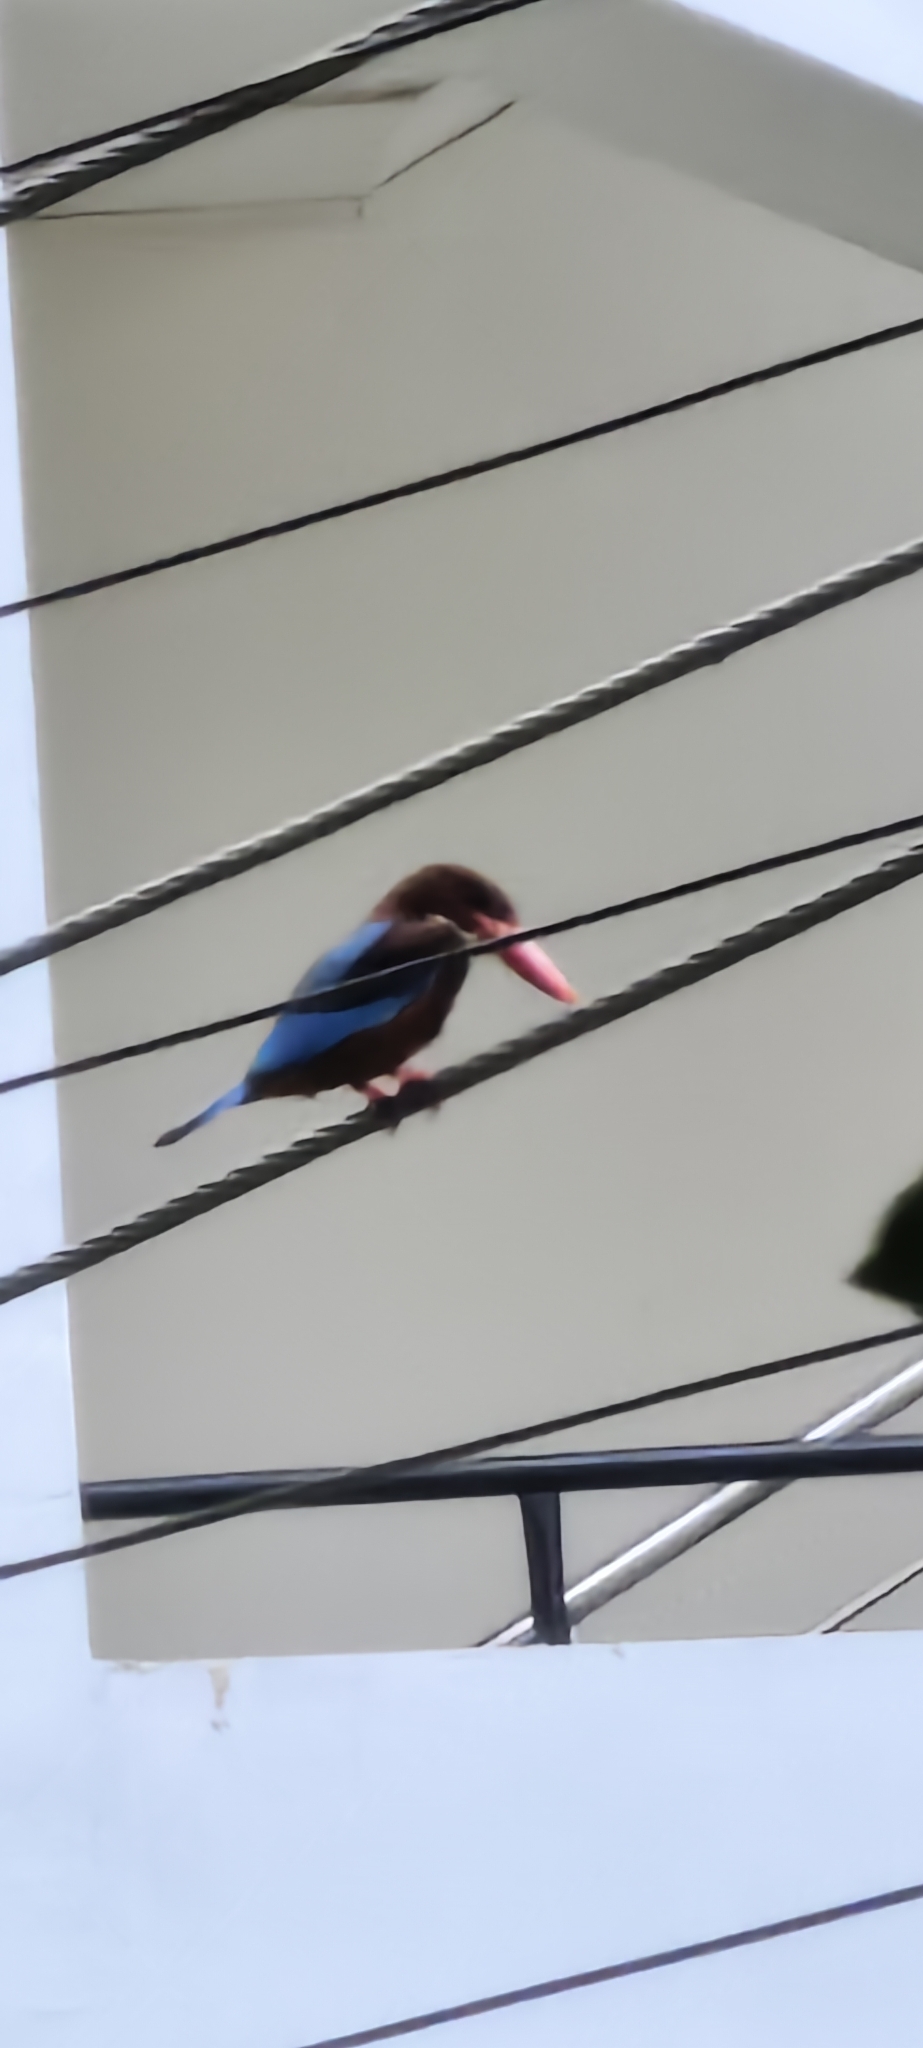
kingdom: Animalia
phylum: Chordata
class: Aves
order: Coraciiformes
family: Alcedinidae
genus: Halcyon
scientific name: Halcyon smyrnensis
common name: White-throated kingfisher
